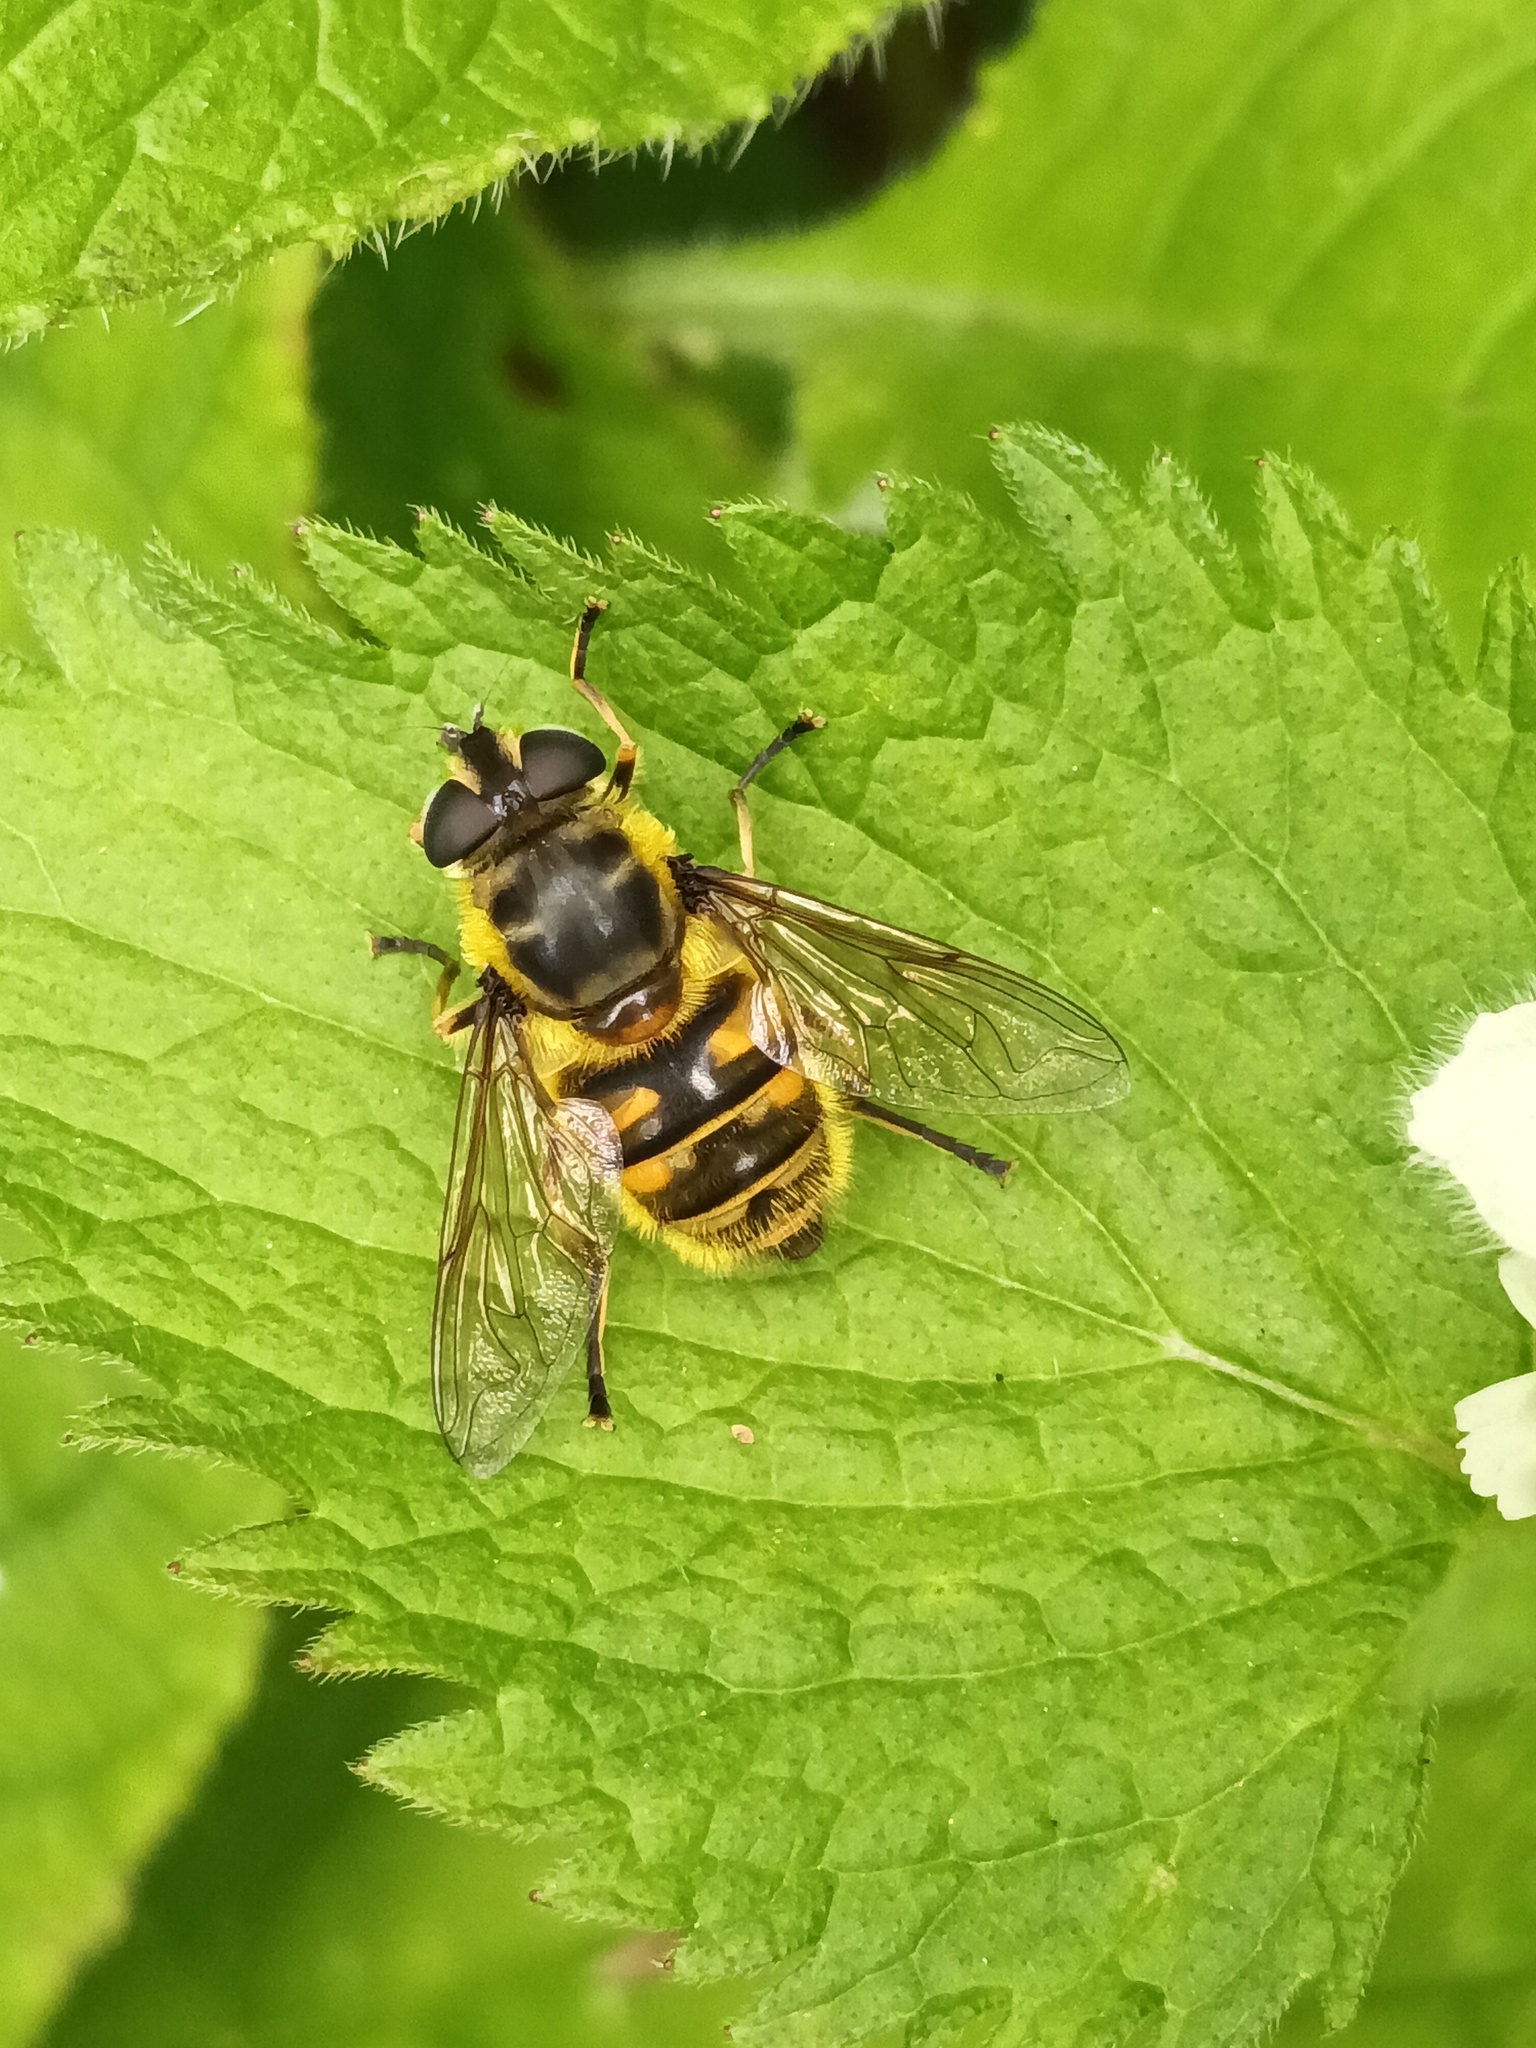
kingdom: Animalia
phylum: Arthropoda
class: Insecta
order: Diptera
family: Syrphidae
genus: Myathropa
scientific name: Myathropa florea
